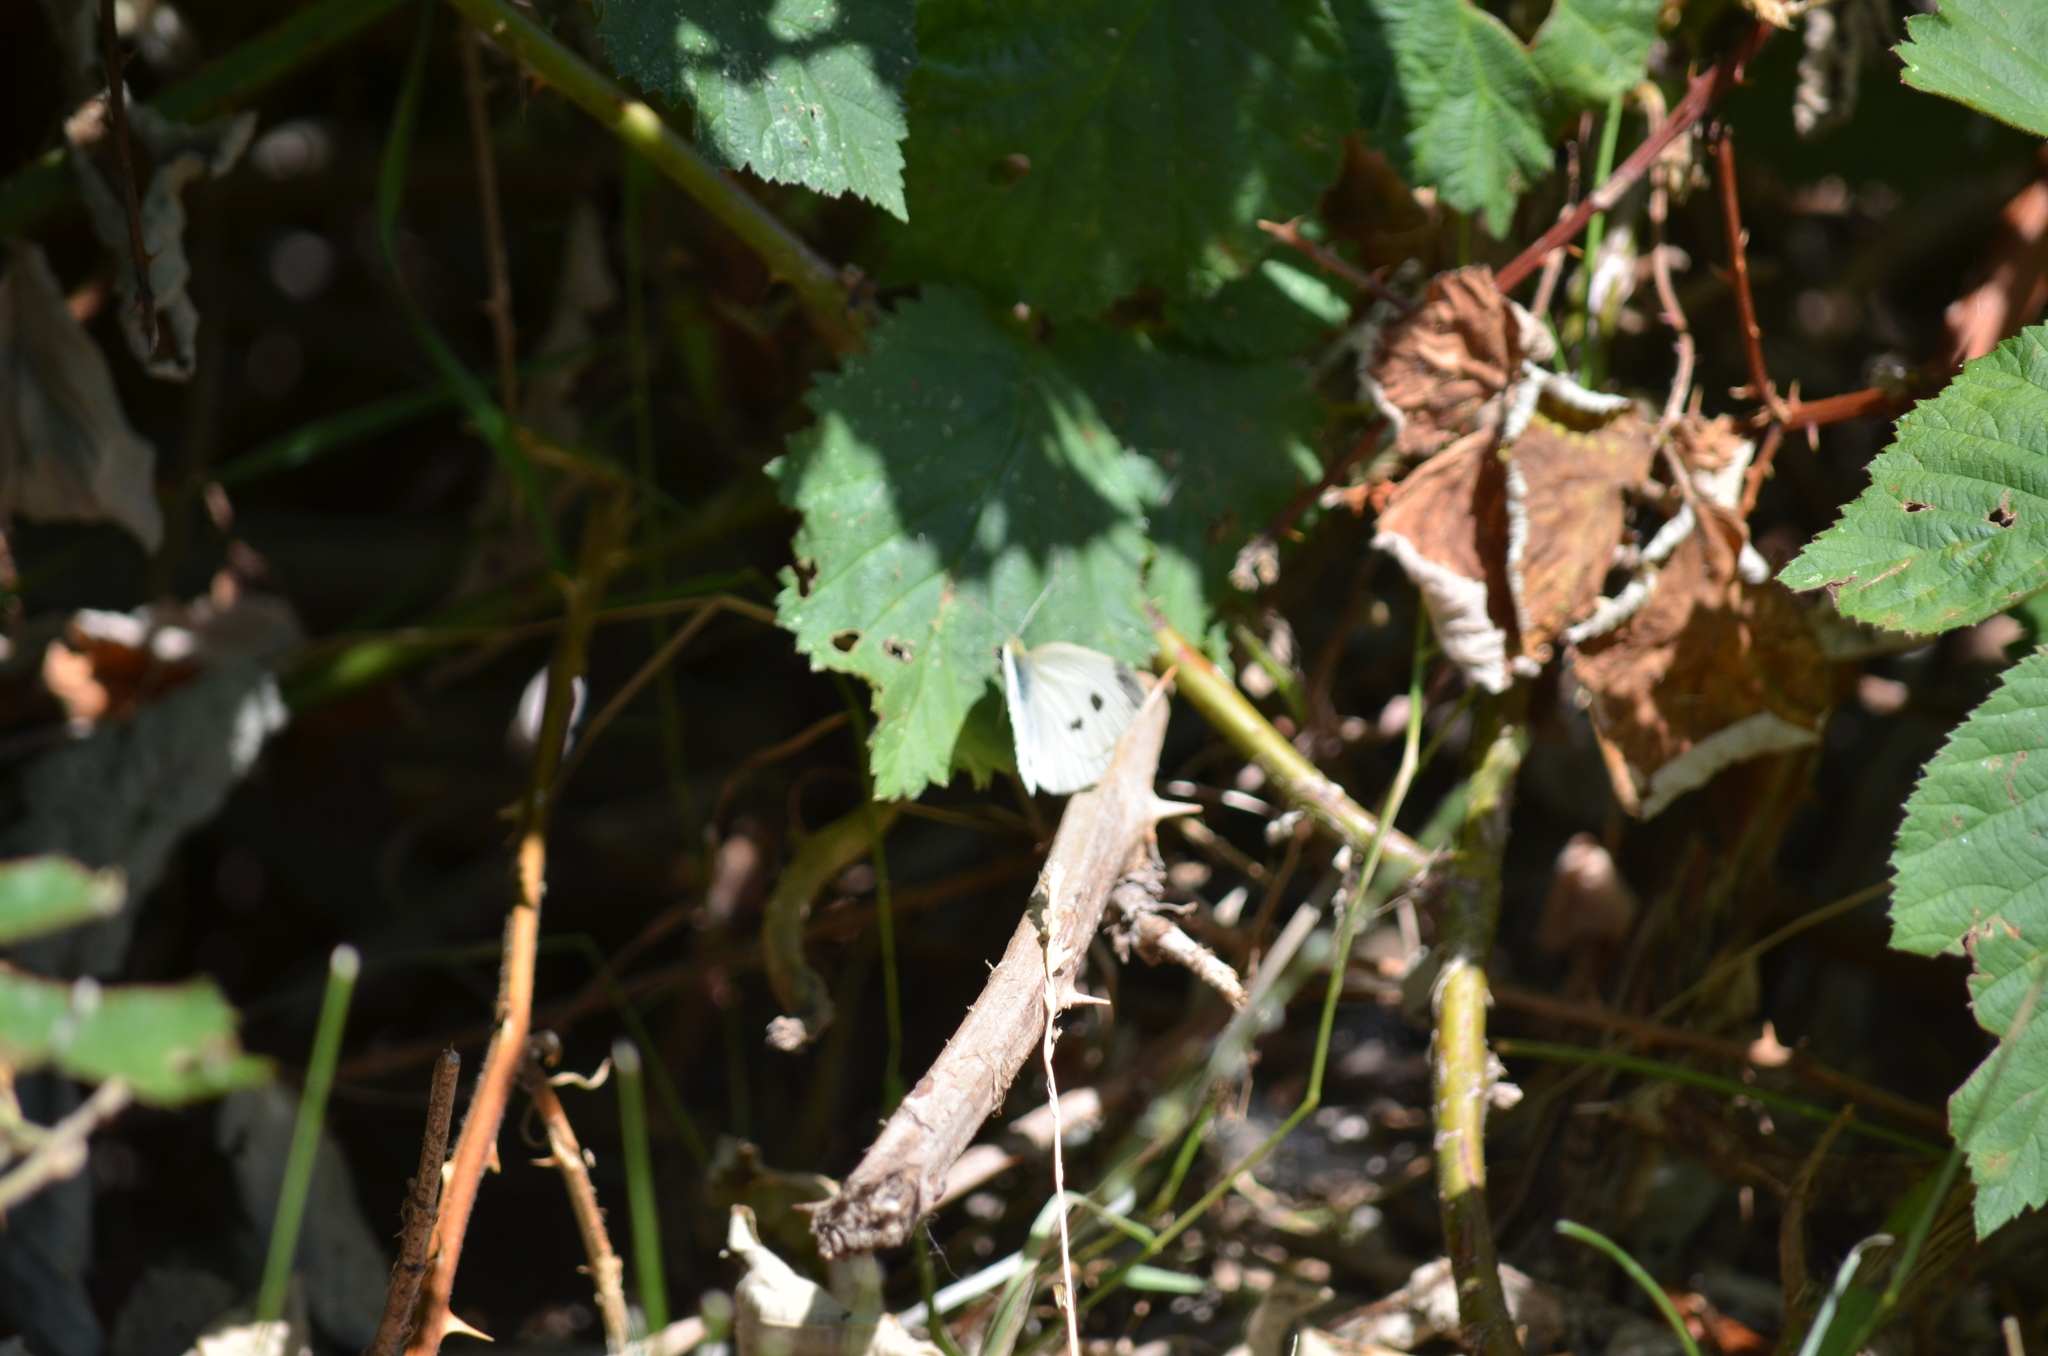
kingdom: Animalia
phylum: Arthropoda
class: Insecta
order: Lepidoptera
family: Pieridae
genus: Pieris
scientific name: Pieris rapae
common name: Small white
